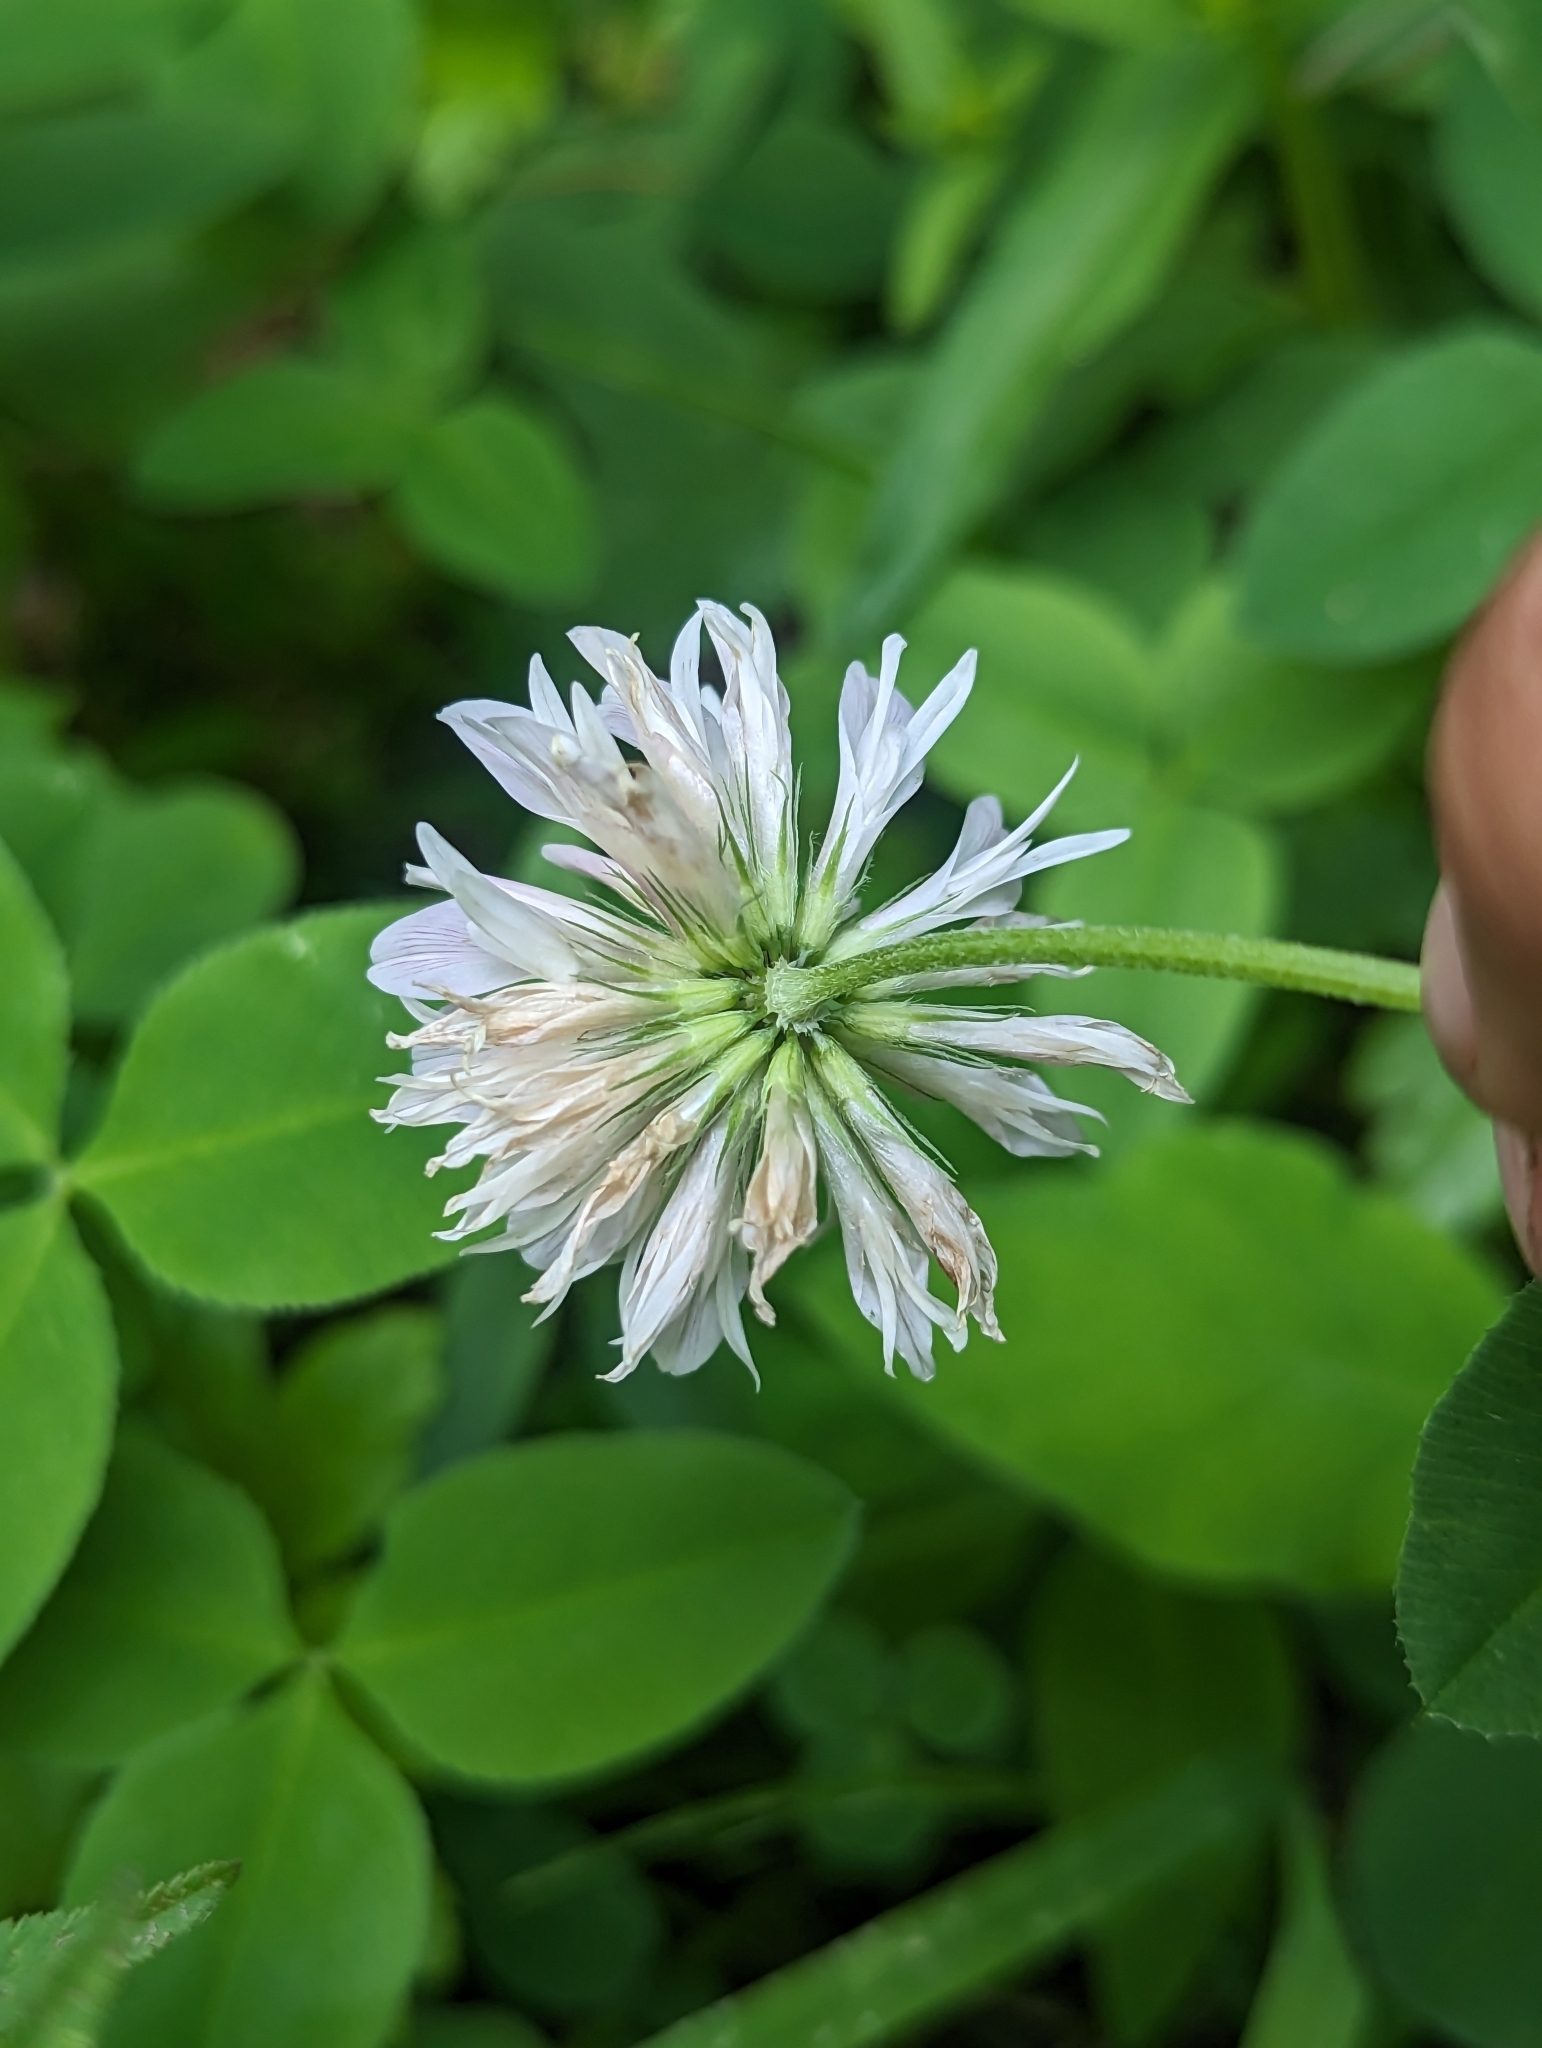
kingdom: Plantae
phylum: Tracheophyta
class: Magnoliopsida
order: Fabales
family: Fabaceae
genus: Trifolium
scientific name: Trifolium latifolium
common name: Broadleaf clover
